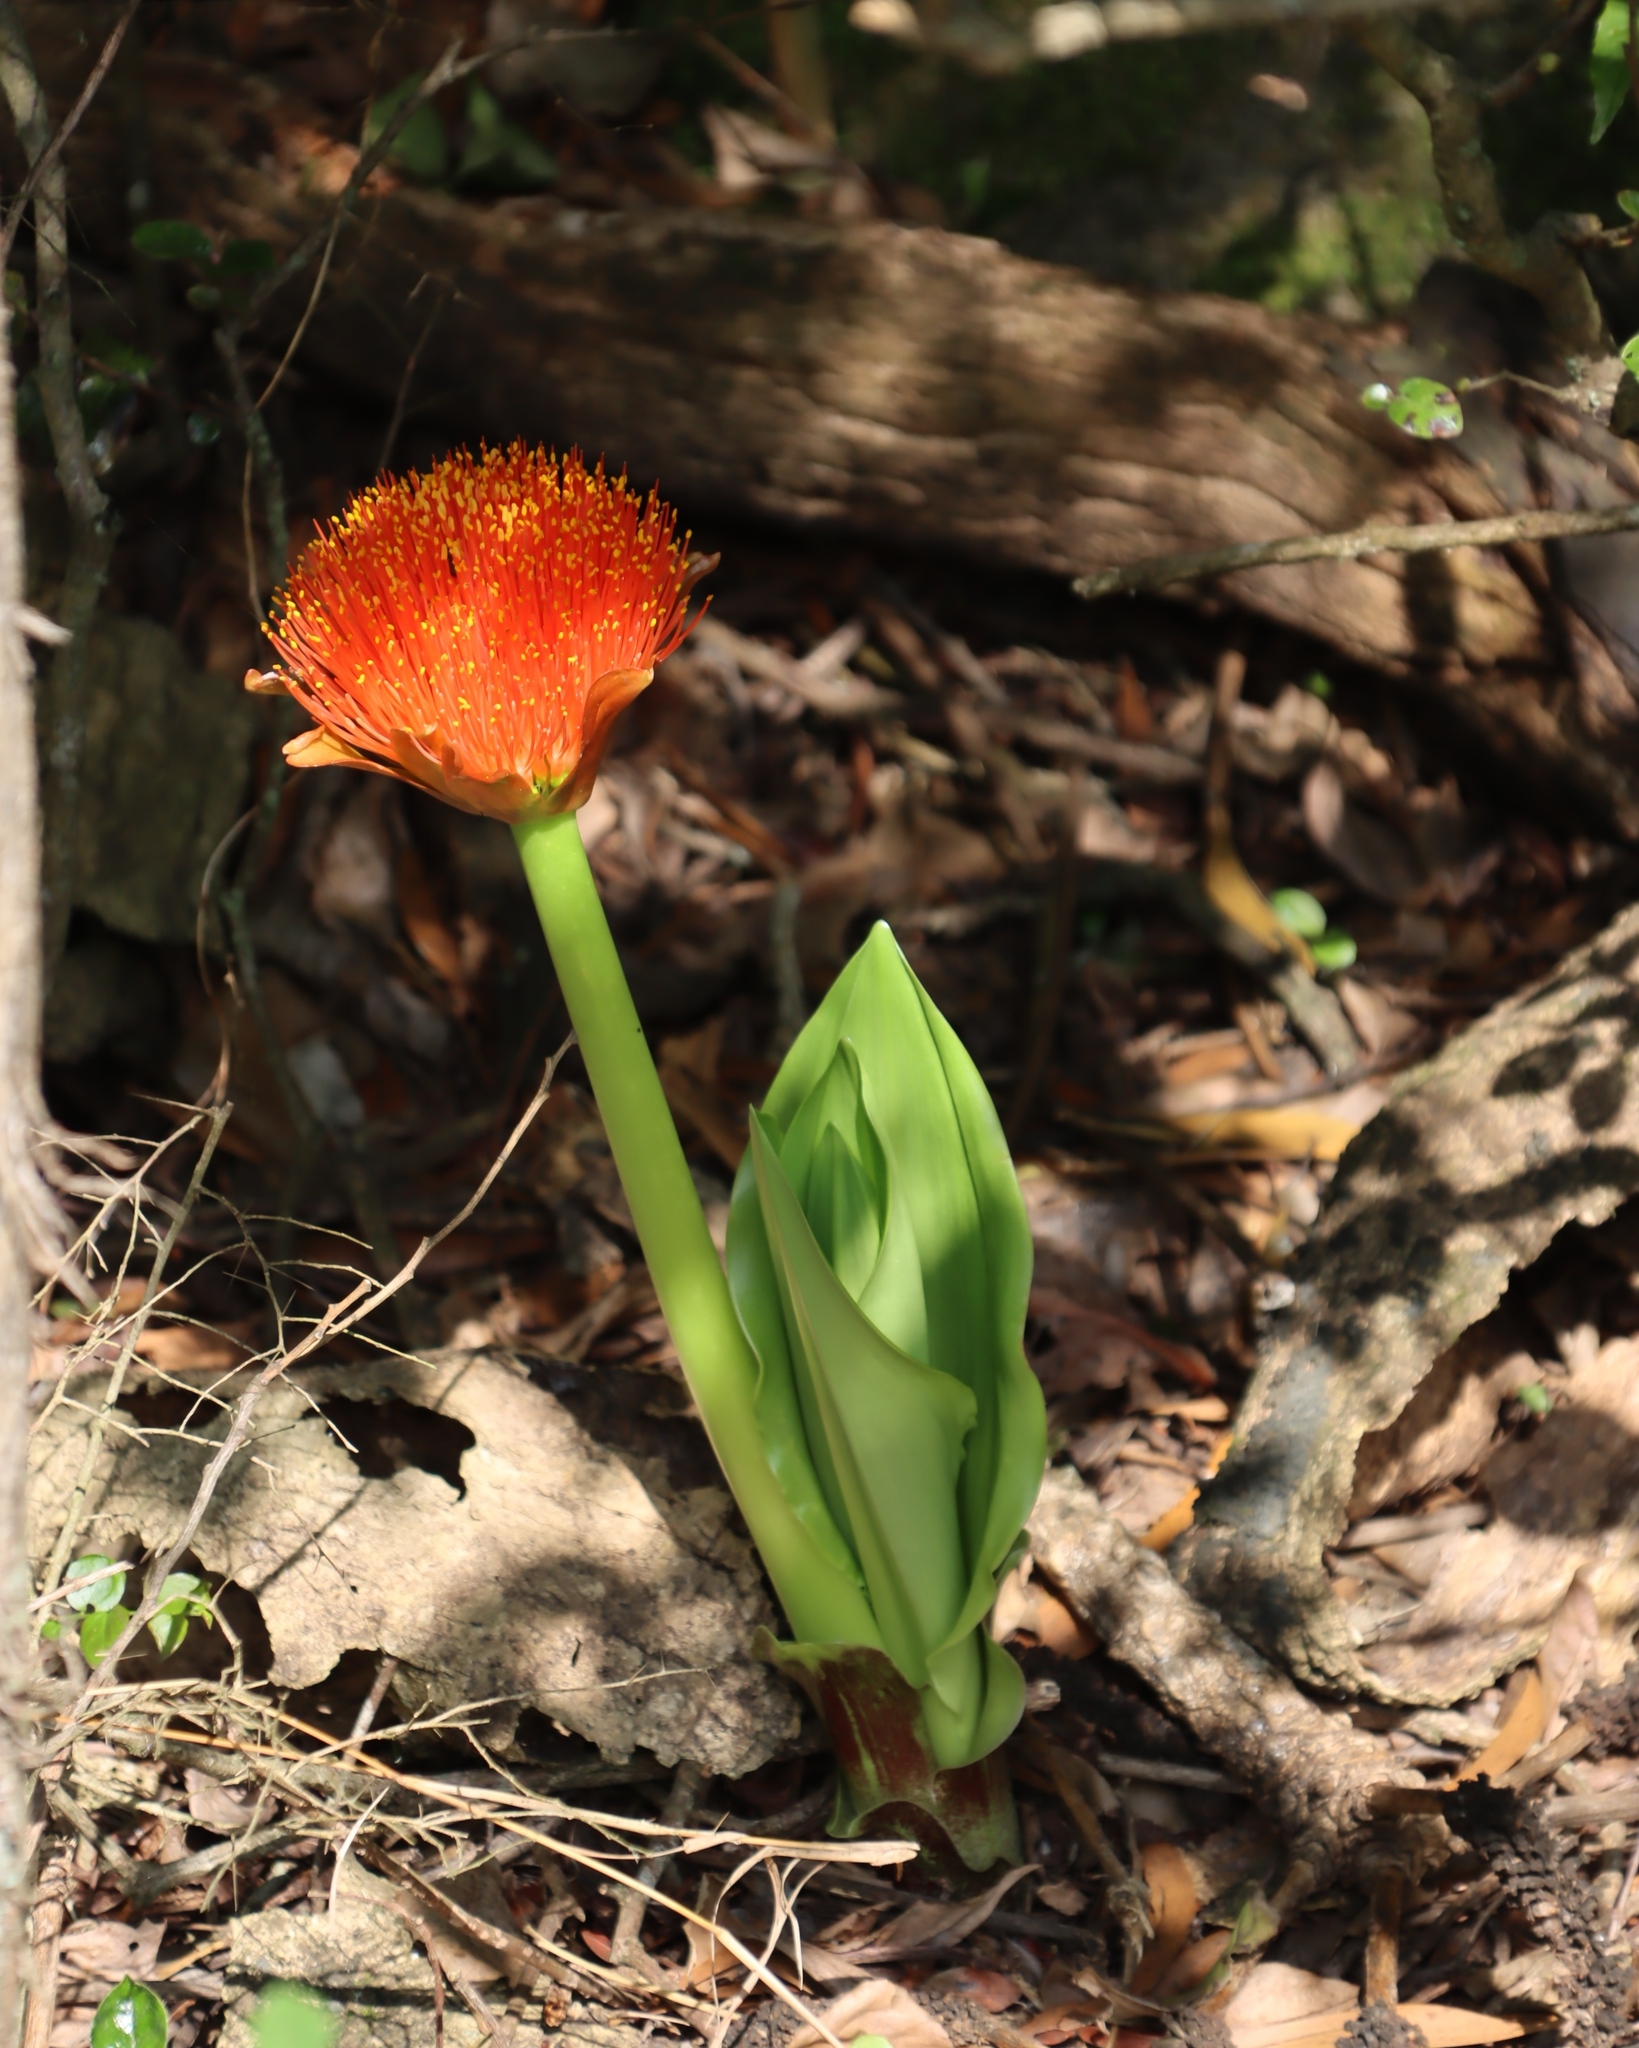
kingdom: Plantae
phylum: Tracheophyta
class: Liliopsida
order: Asparagales
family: Amaryllidaceae
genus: Scadoxus
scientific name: Scadoxus puniceus
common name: Royal-paintbrush
